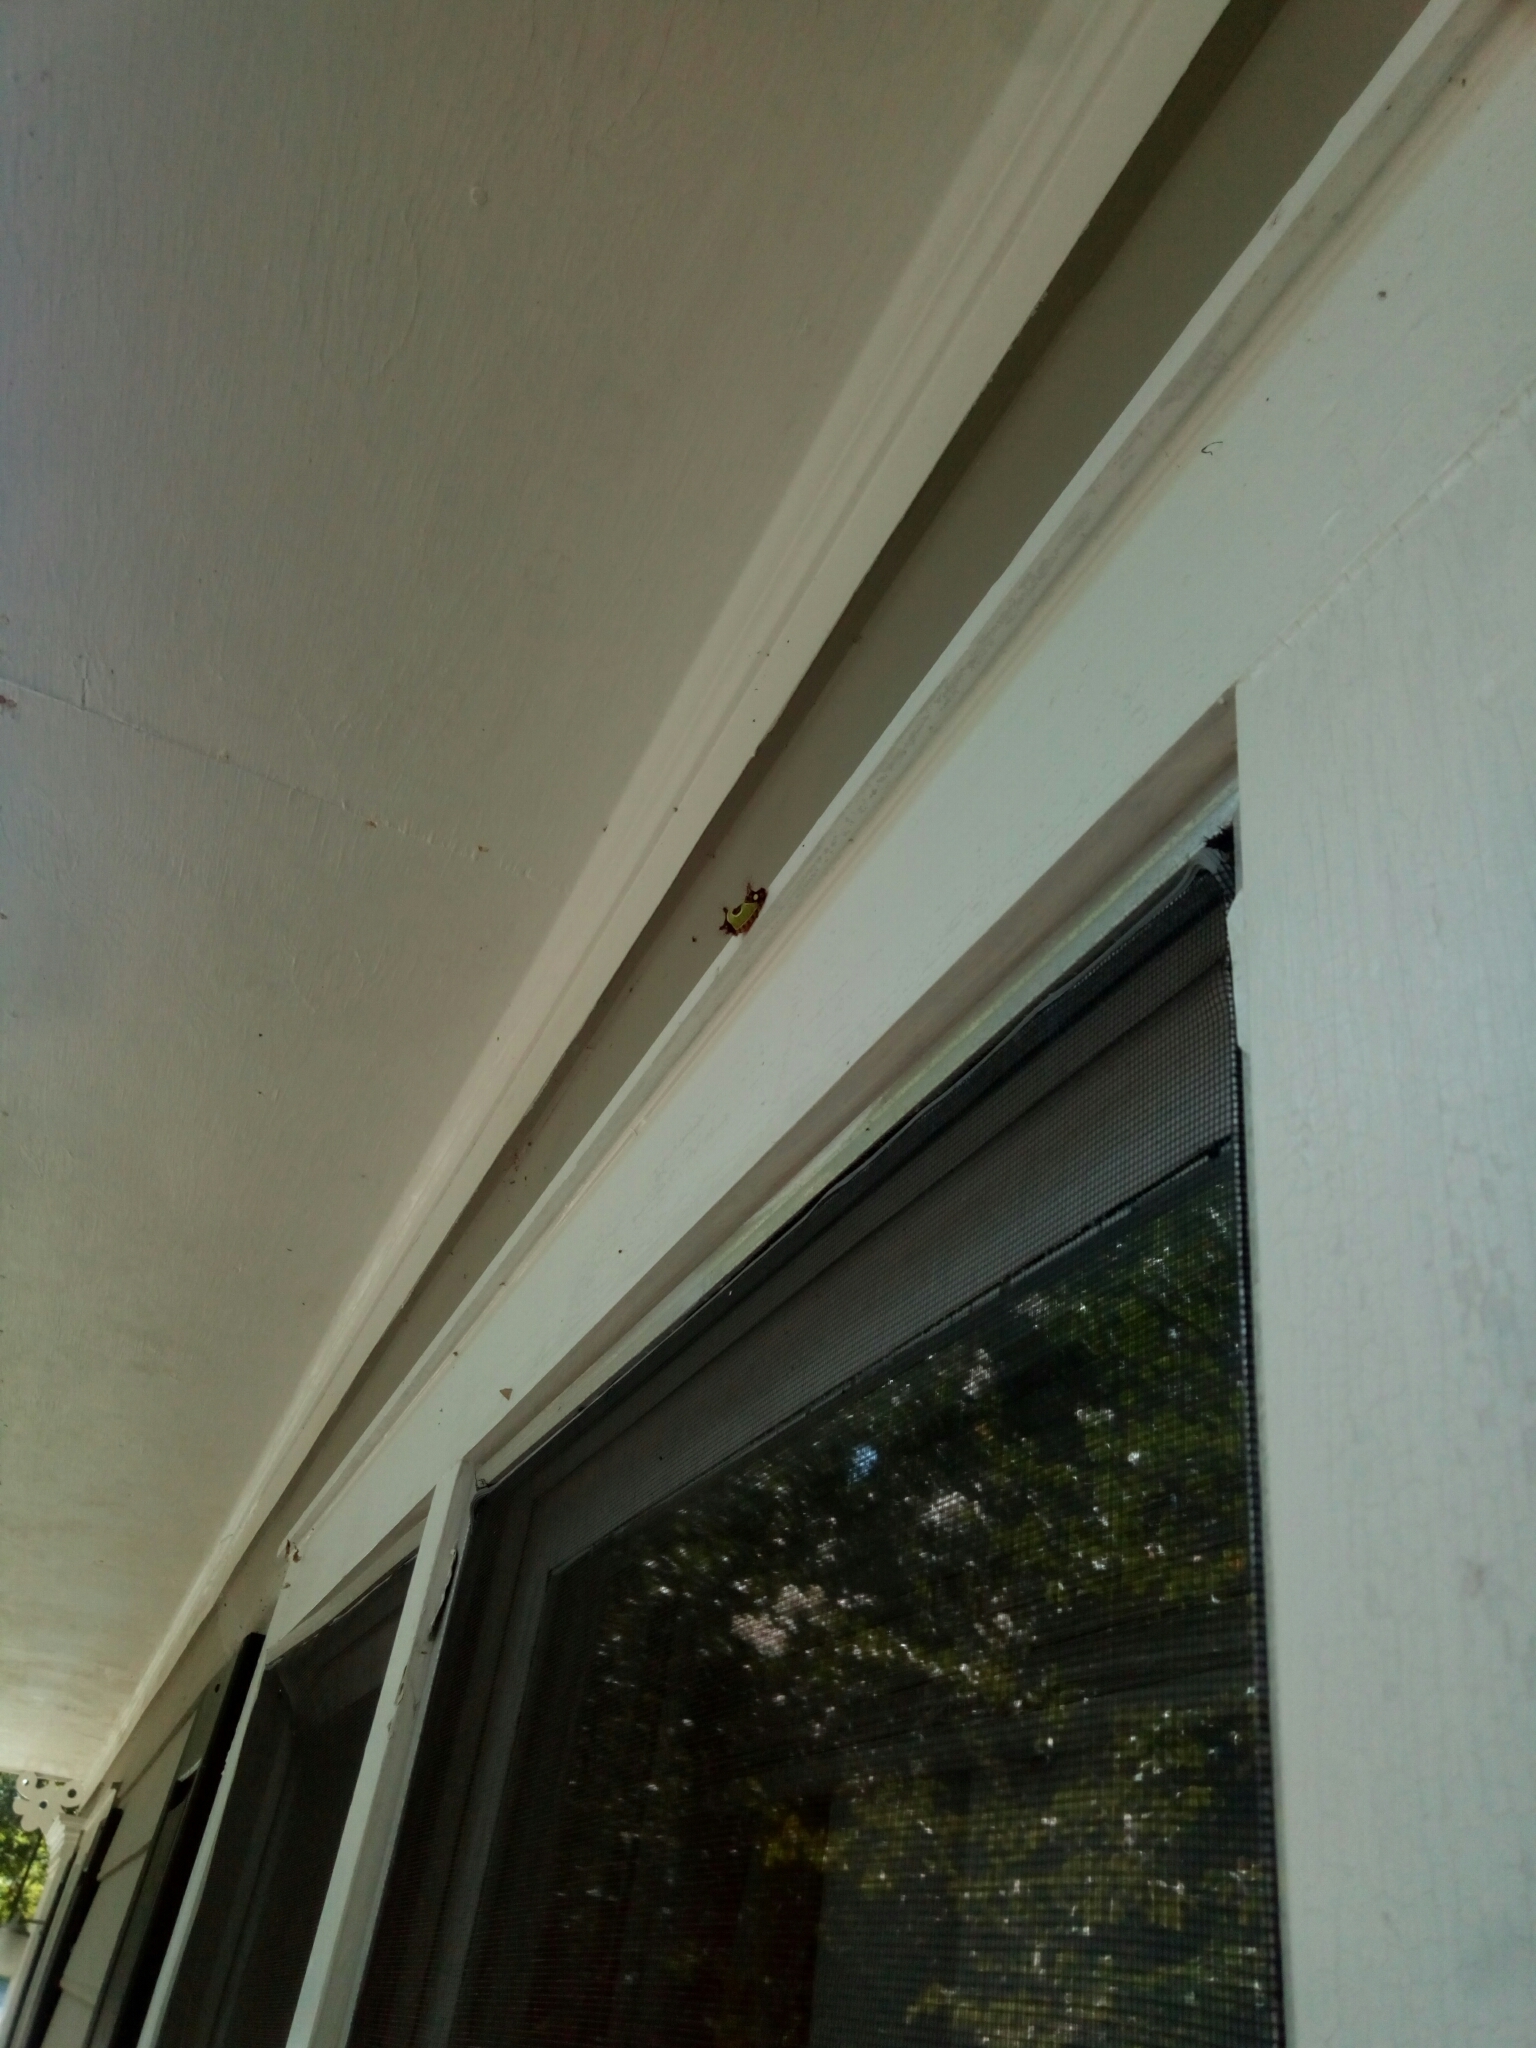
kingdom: Animalia
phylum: Arthropoda
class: Insecta
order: Lepidoptera
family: Limacodidae
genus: Acharia
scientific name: Acharia stimulea
